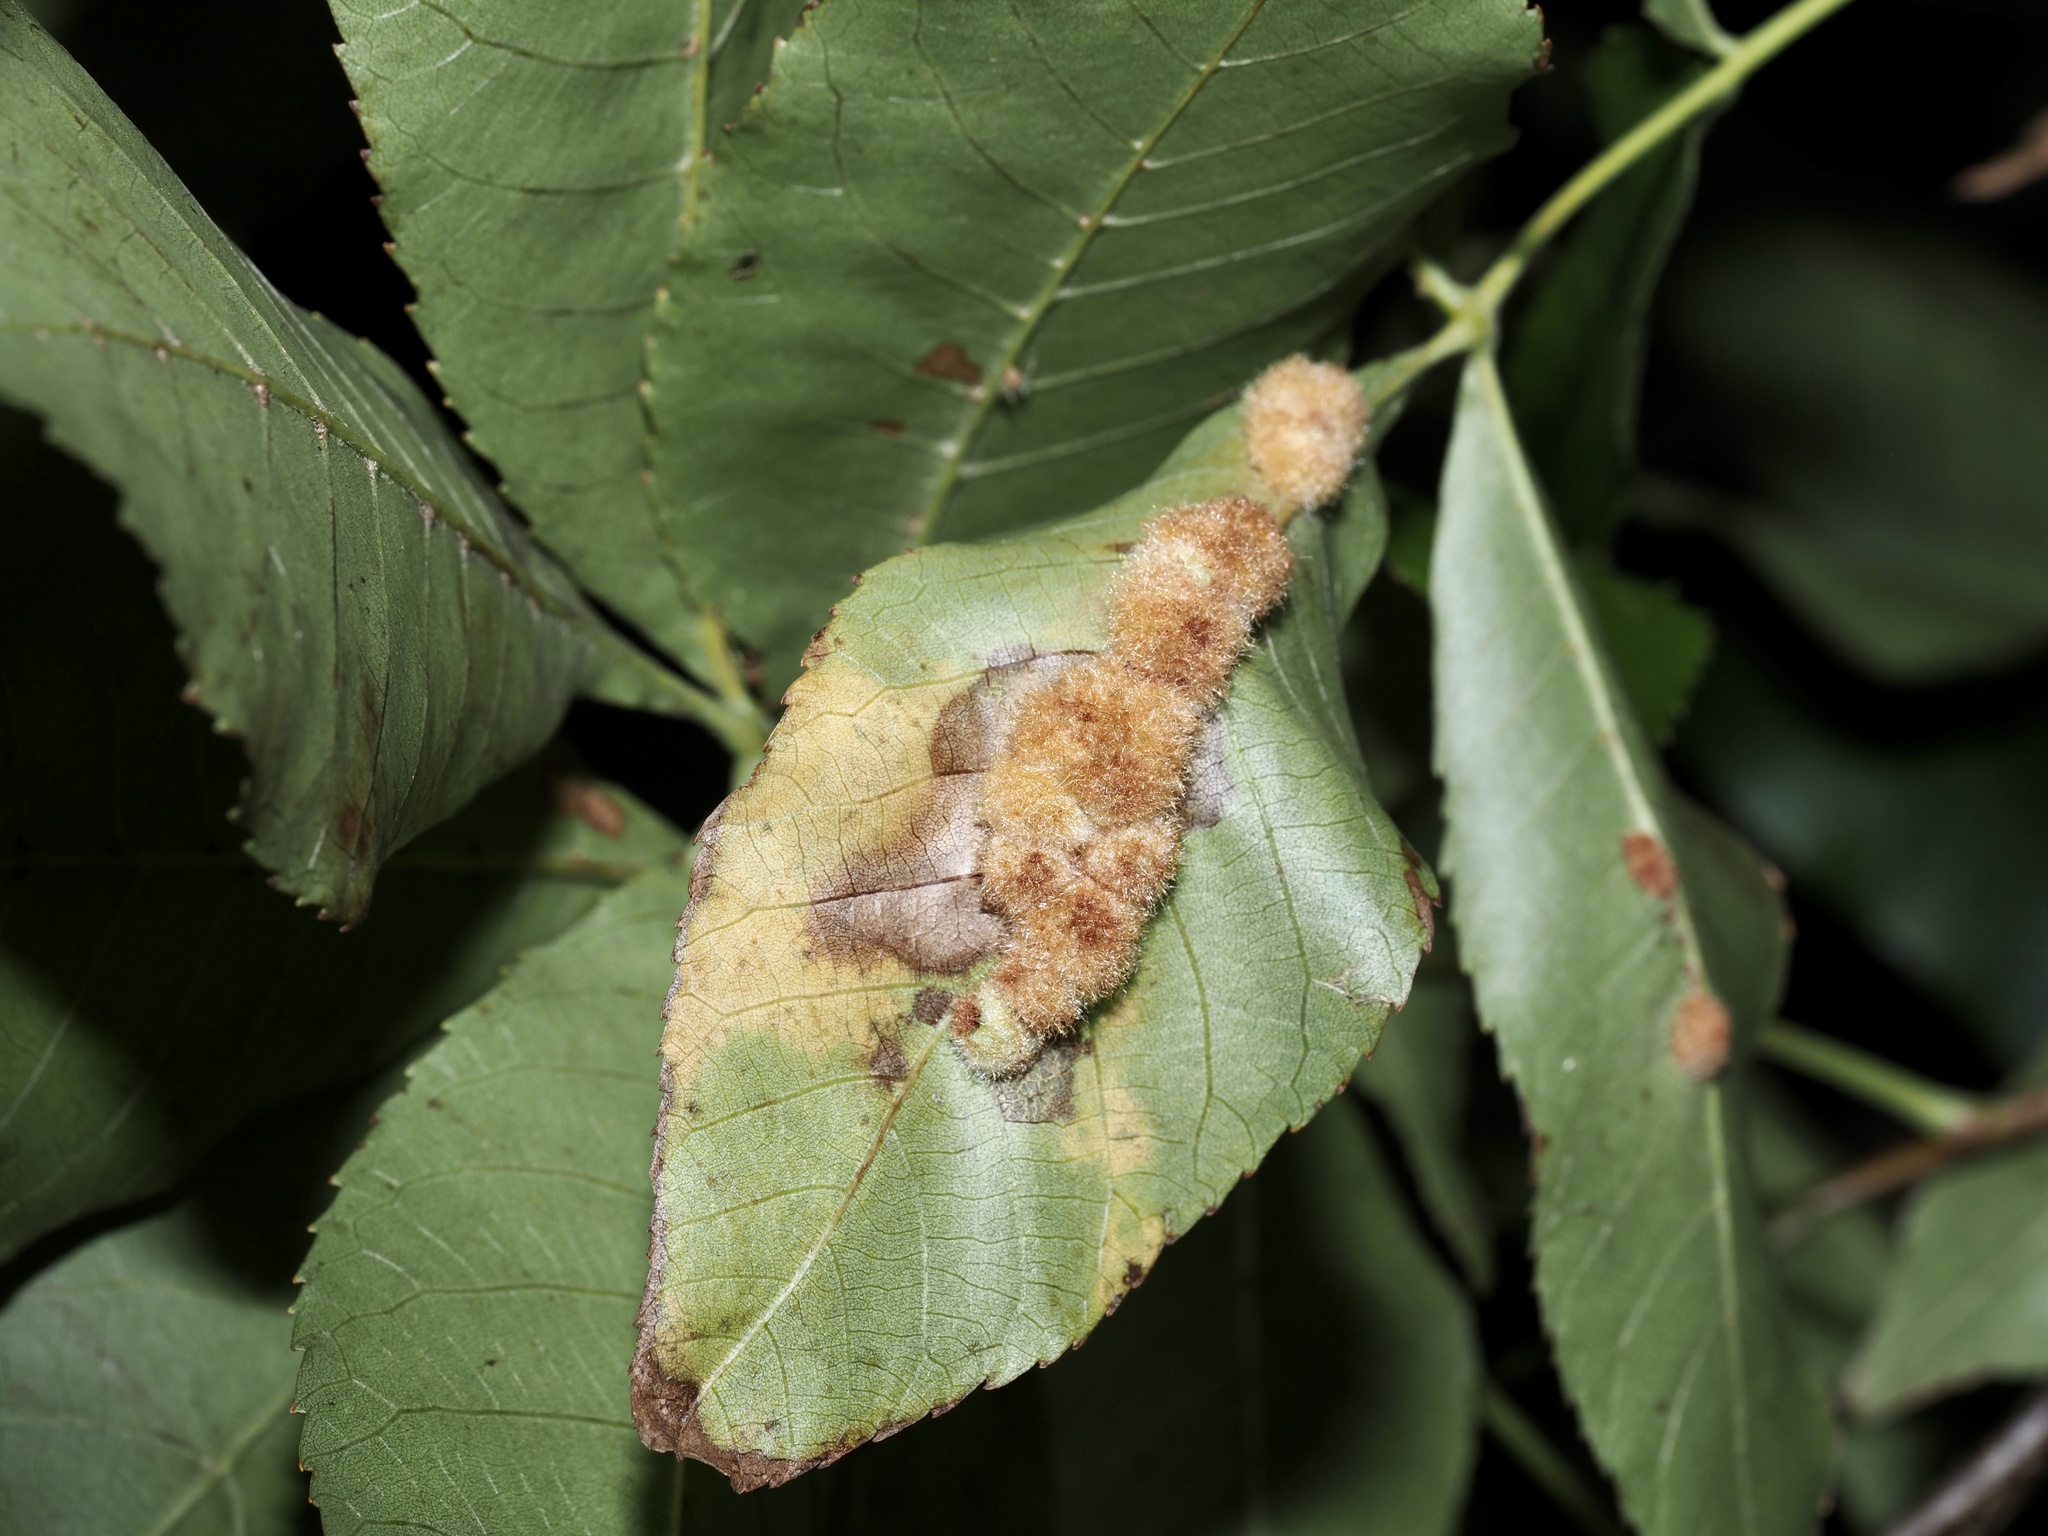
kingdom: Animalia
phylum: Arthropoda
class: Insecta
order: Diptera
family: Cecidomyiidae
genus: Caryomyia
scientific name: Caryomyia aggregata
